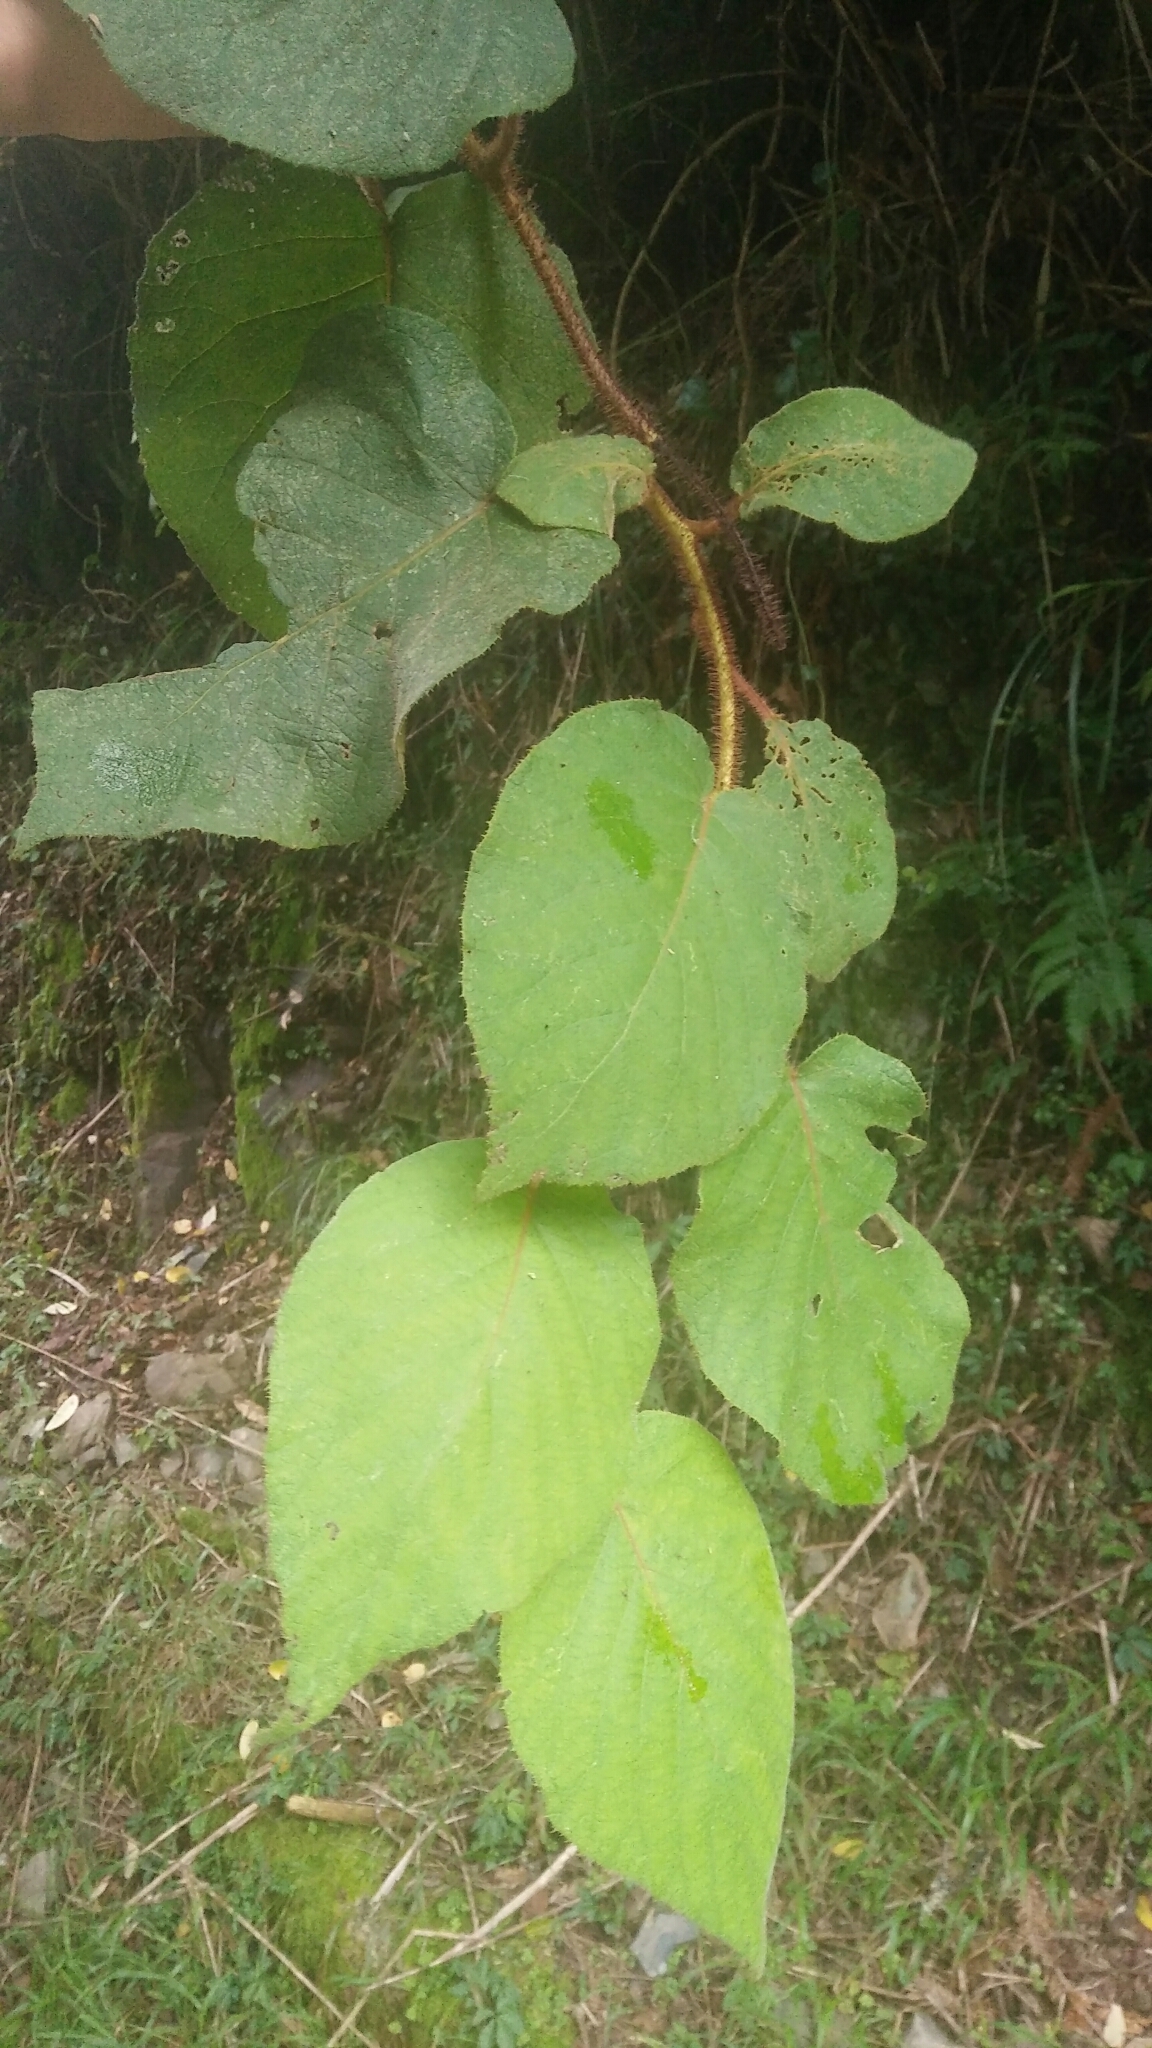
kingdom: Plantae
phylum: Tracheophyta
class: Magnoliopsida
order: Ericales
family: Actinidiaceae
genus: Actinidia
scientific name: Actinidia chinensis
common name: Kiwi
